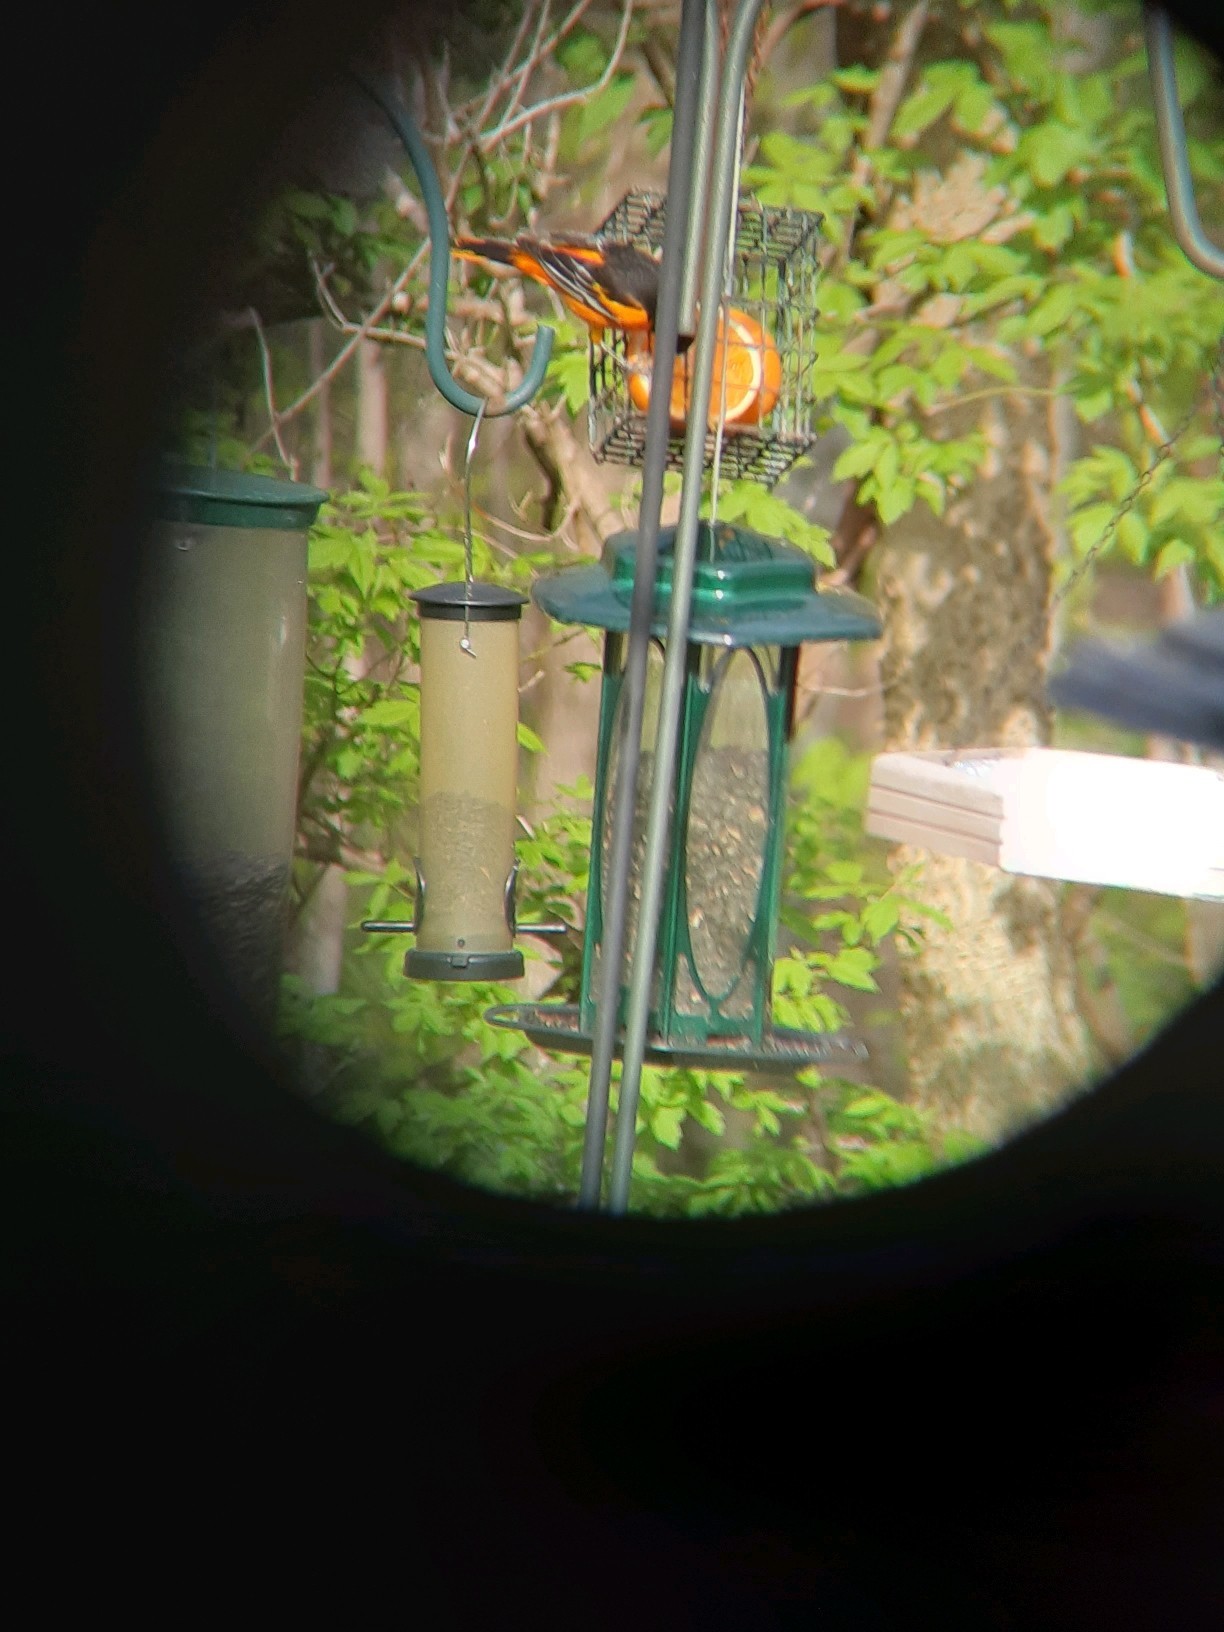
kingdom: Animalia
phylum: Chordata
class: Aves
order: Passeriformes
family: Icteridae
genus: Icterus
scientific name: Icterus galbula
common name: Baltimore oriole
